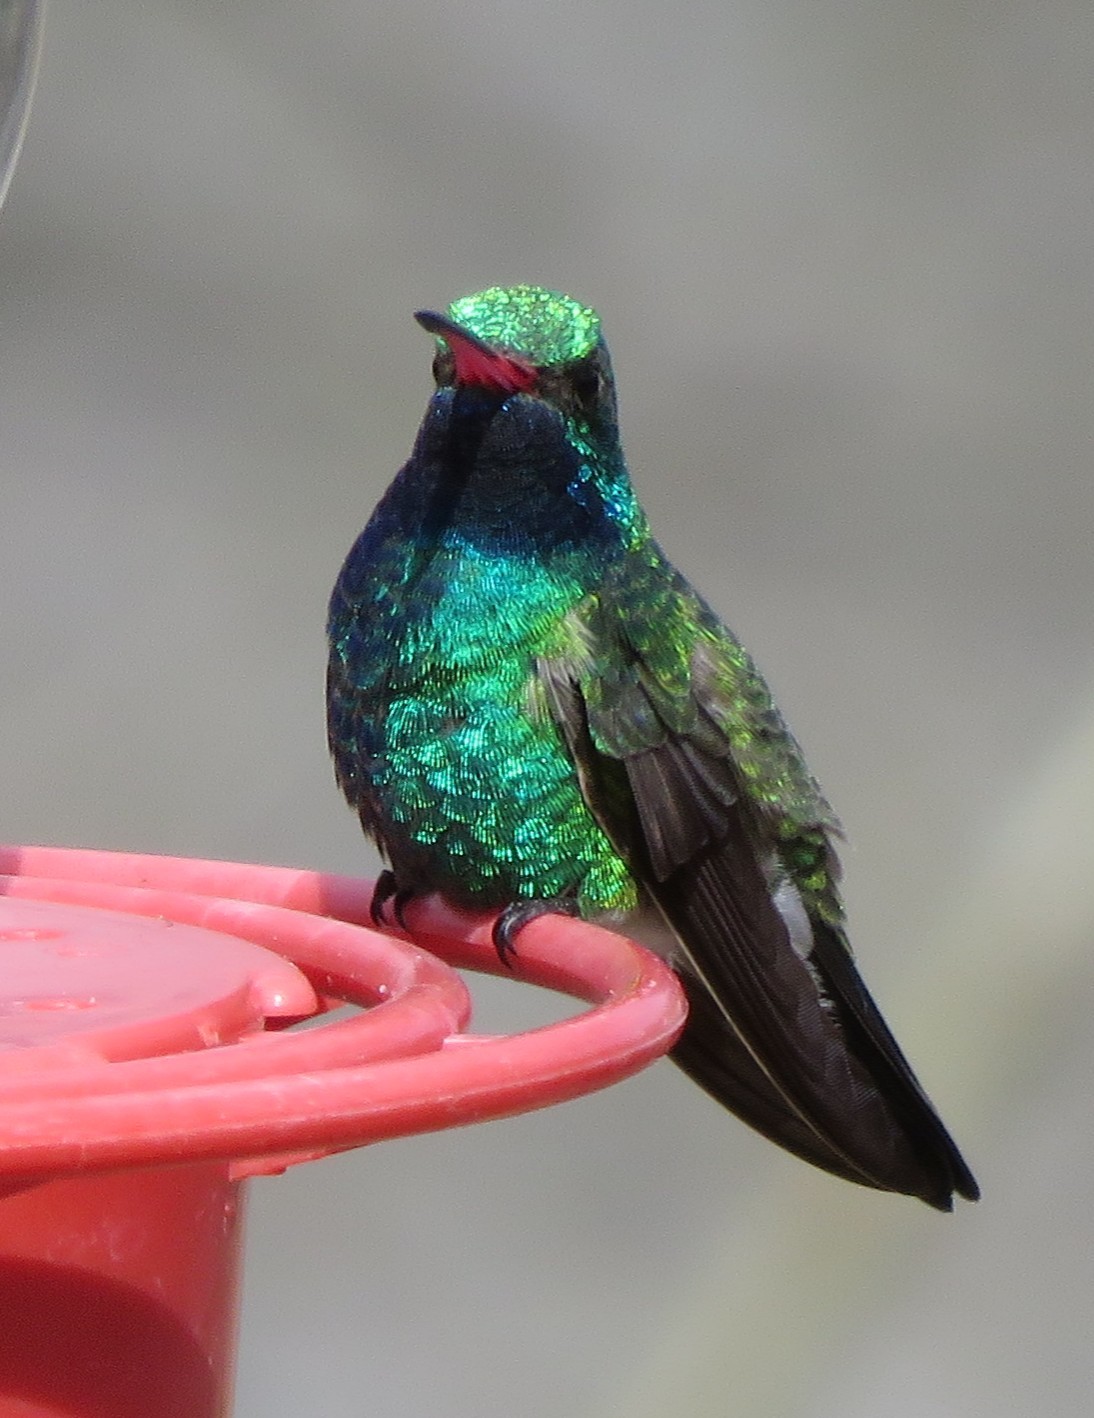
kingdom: Animalia
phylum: Chordata
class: Aves
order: Apodiformes
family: Trochilidae
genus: Cynanthus
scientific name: Cynanthus latirostris
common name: Broad-billed hummingbird
